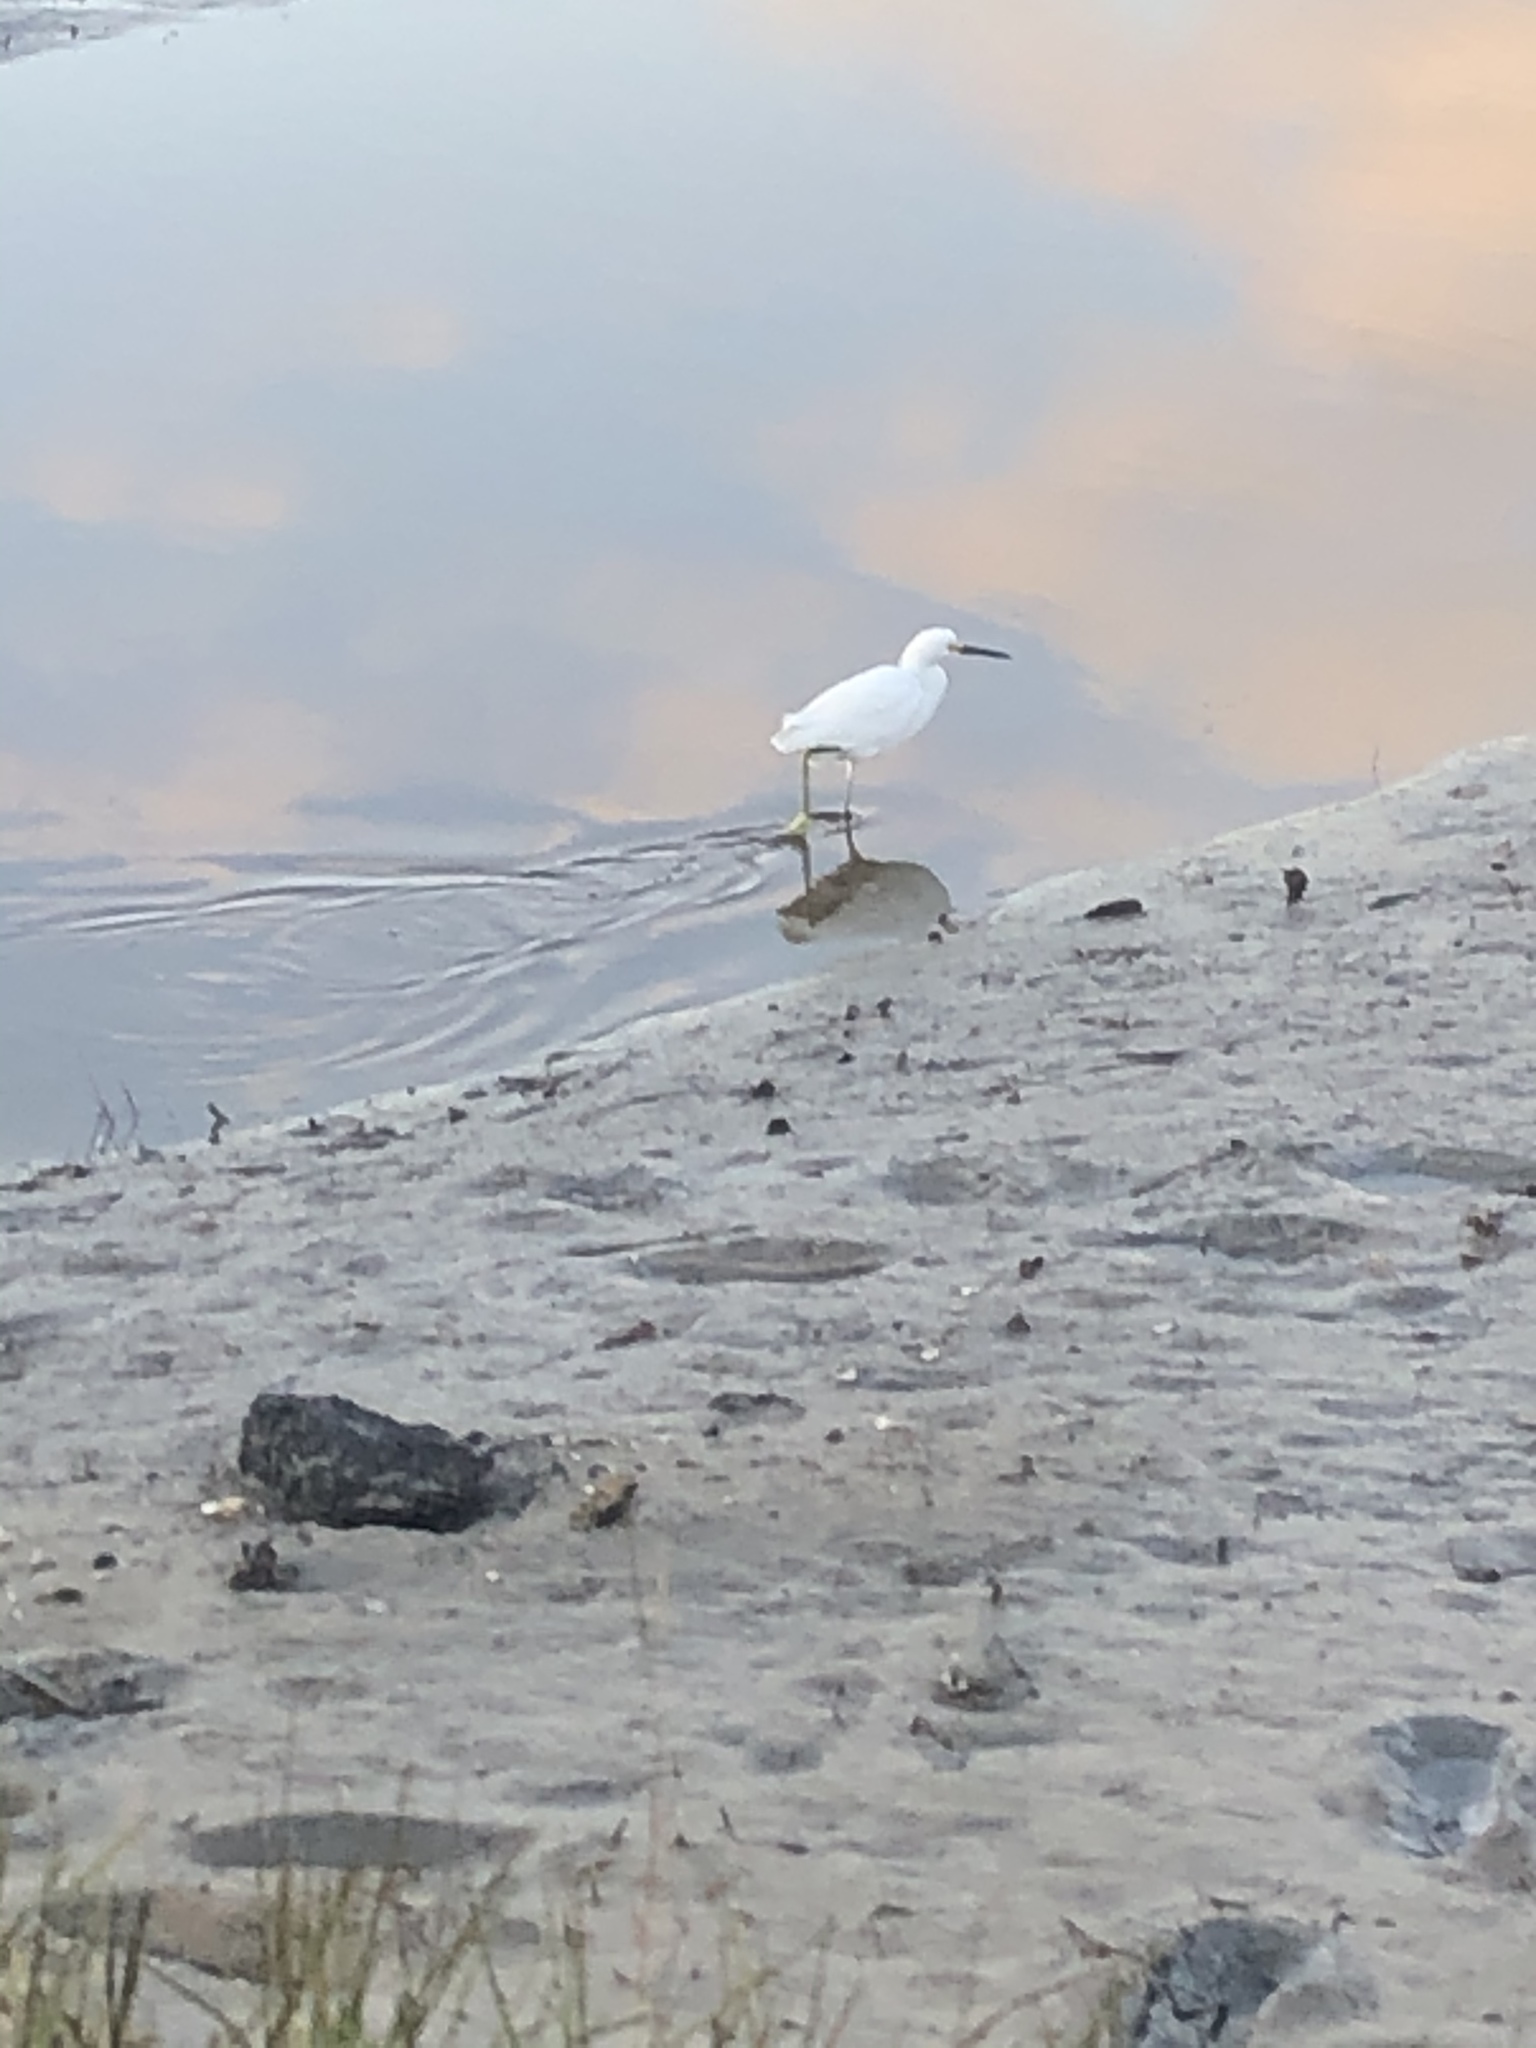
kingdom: Animalia
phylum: Chordata
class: Aves
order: Pelecaniformes
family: Ardeidae
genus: Egretta
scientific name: Egretta thula
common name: Snowy egret
